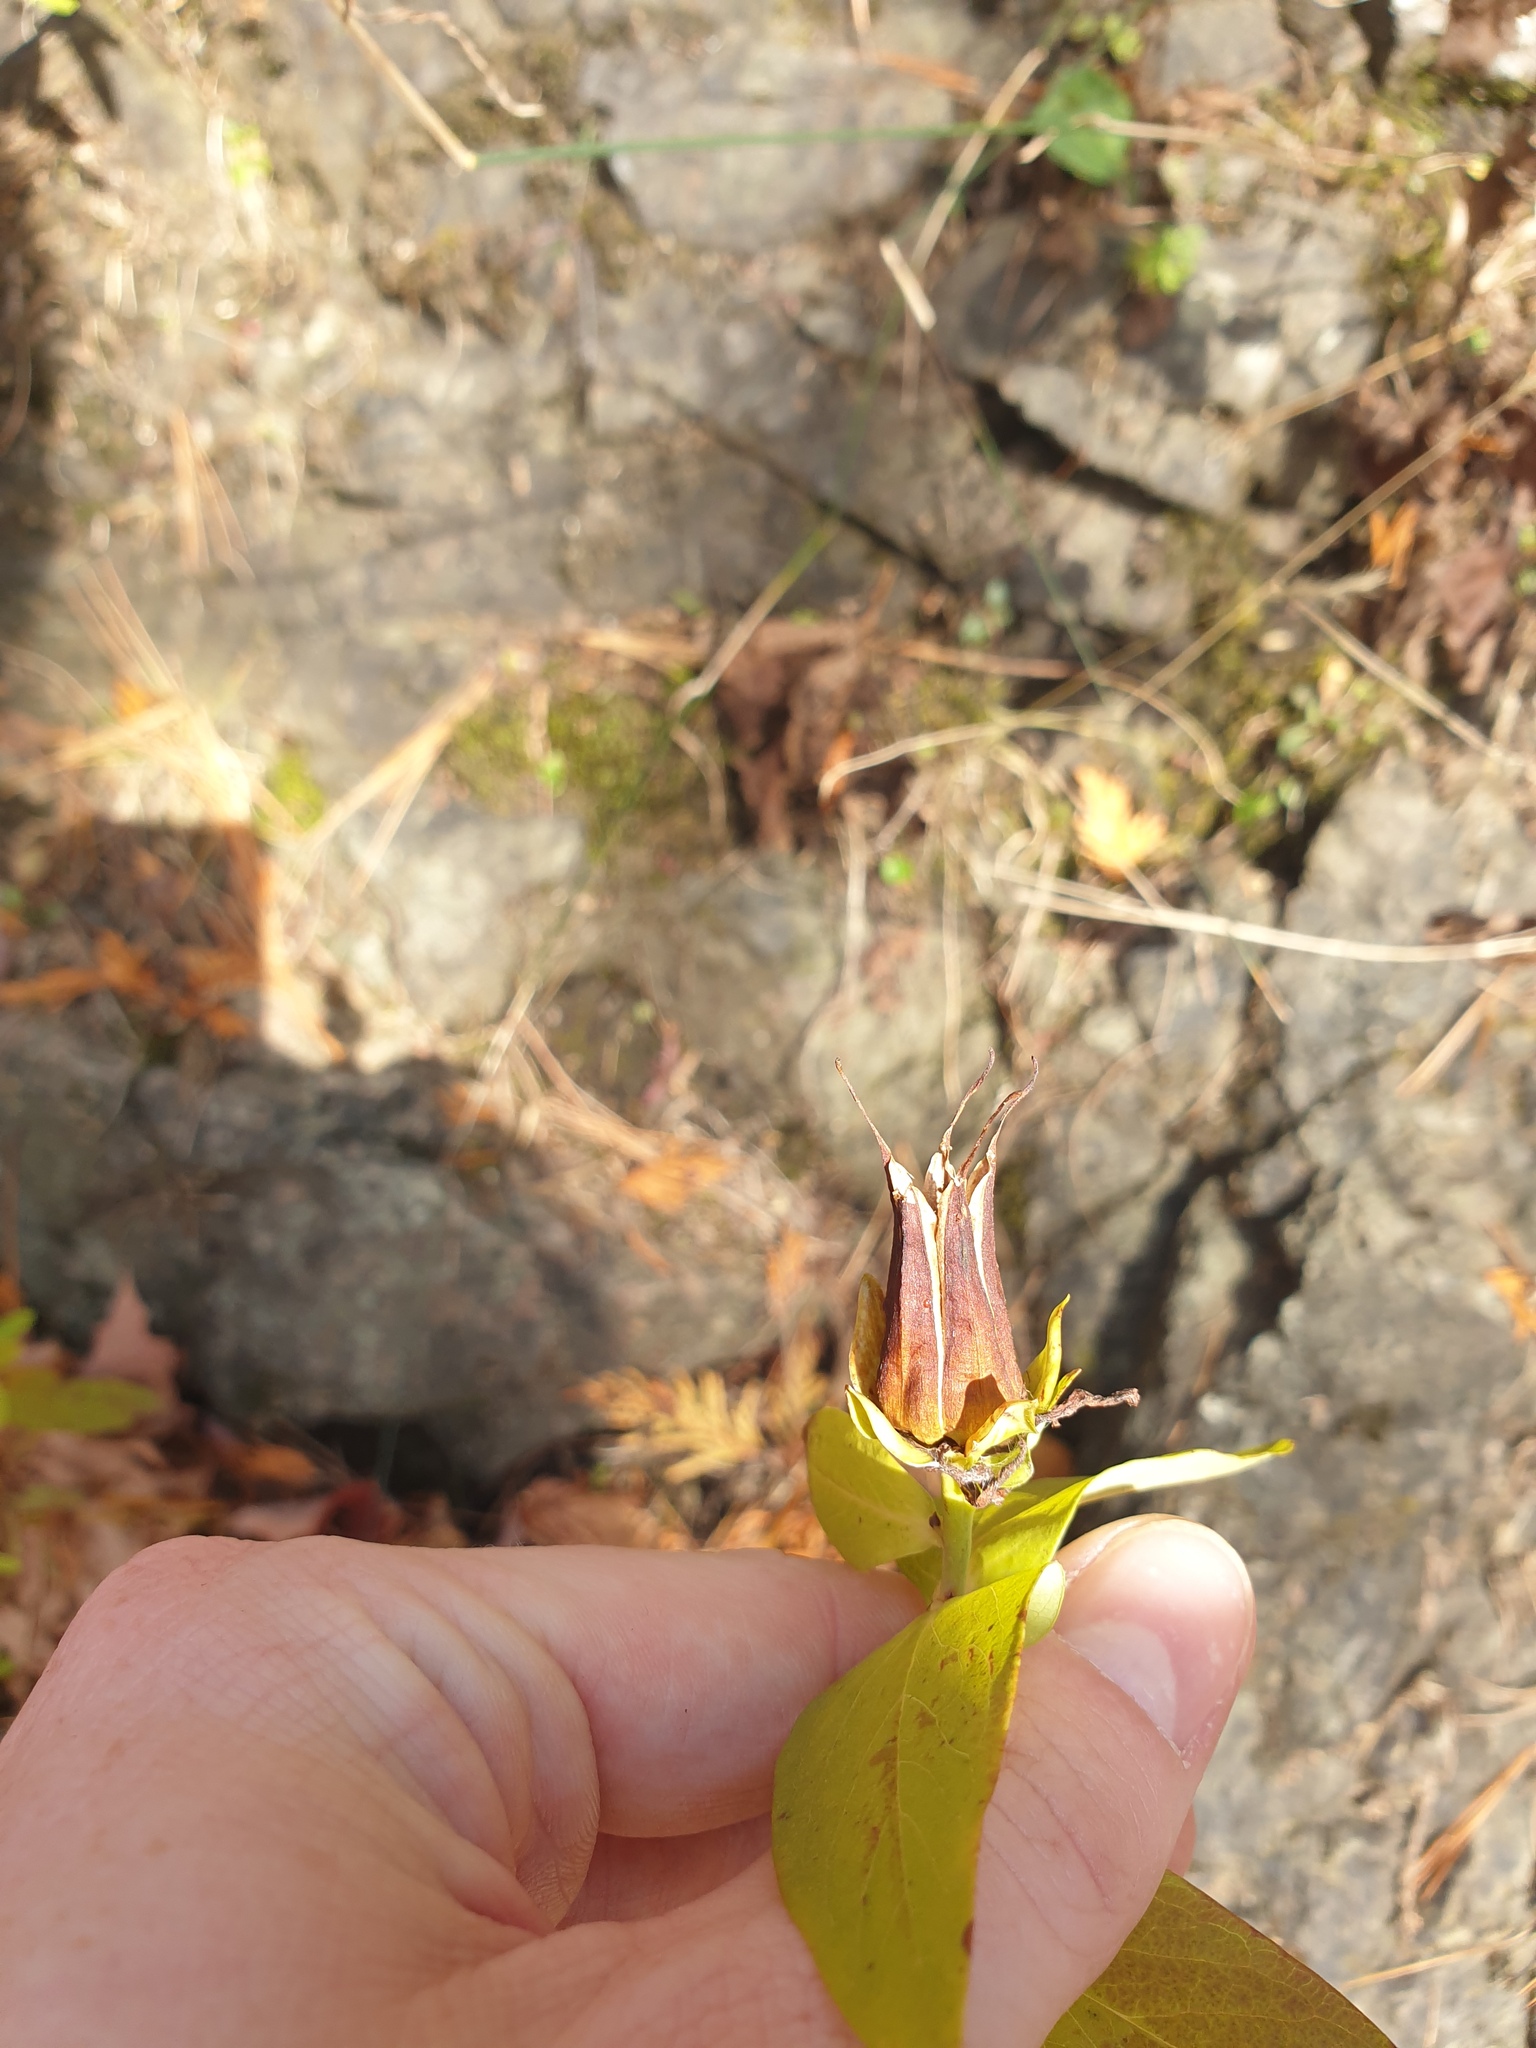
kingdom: Plantae
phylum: Tracheophyta
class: Magnoliopsida
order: Malpighiales
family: Hypericaceae
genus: Hypericum
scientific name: Hypericum ascyron
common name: Giant st. john's-wort
